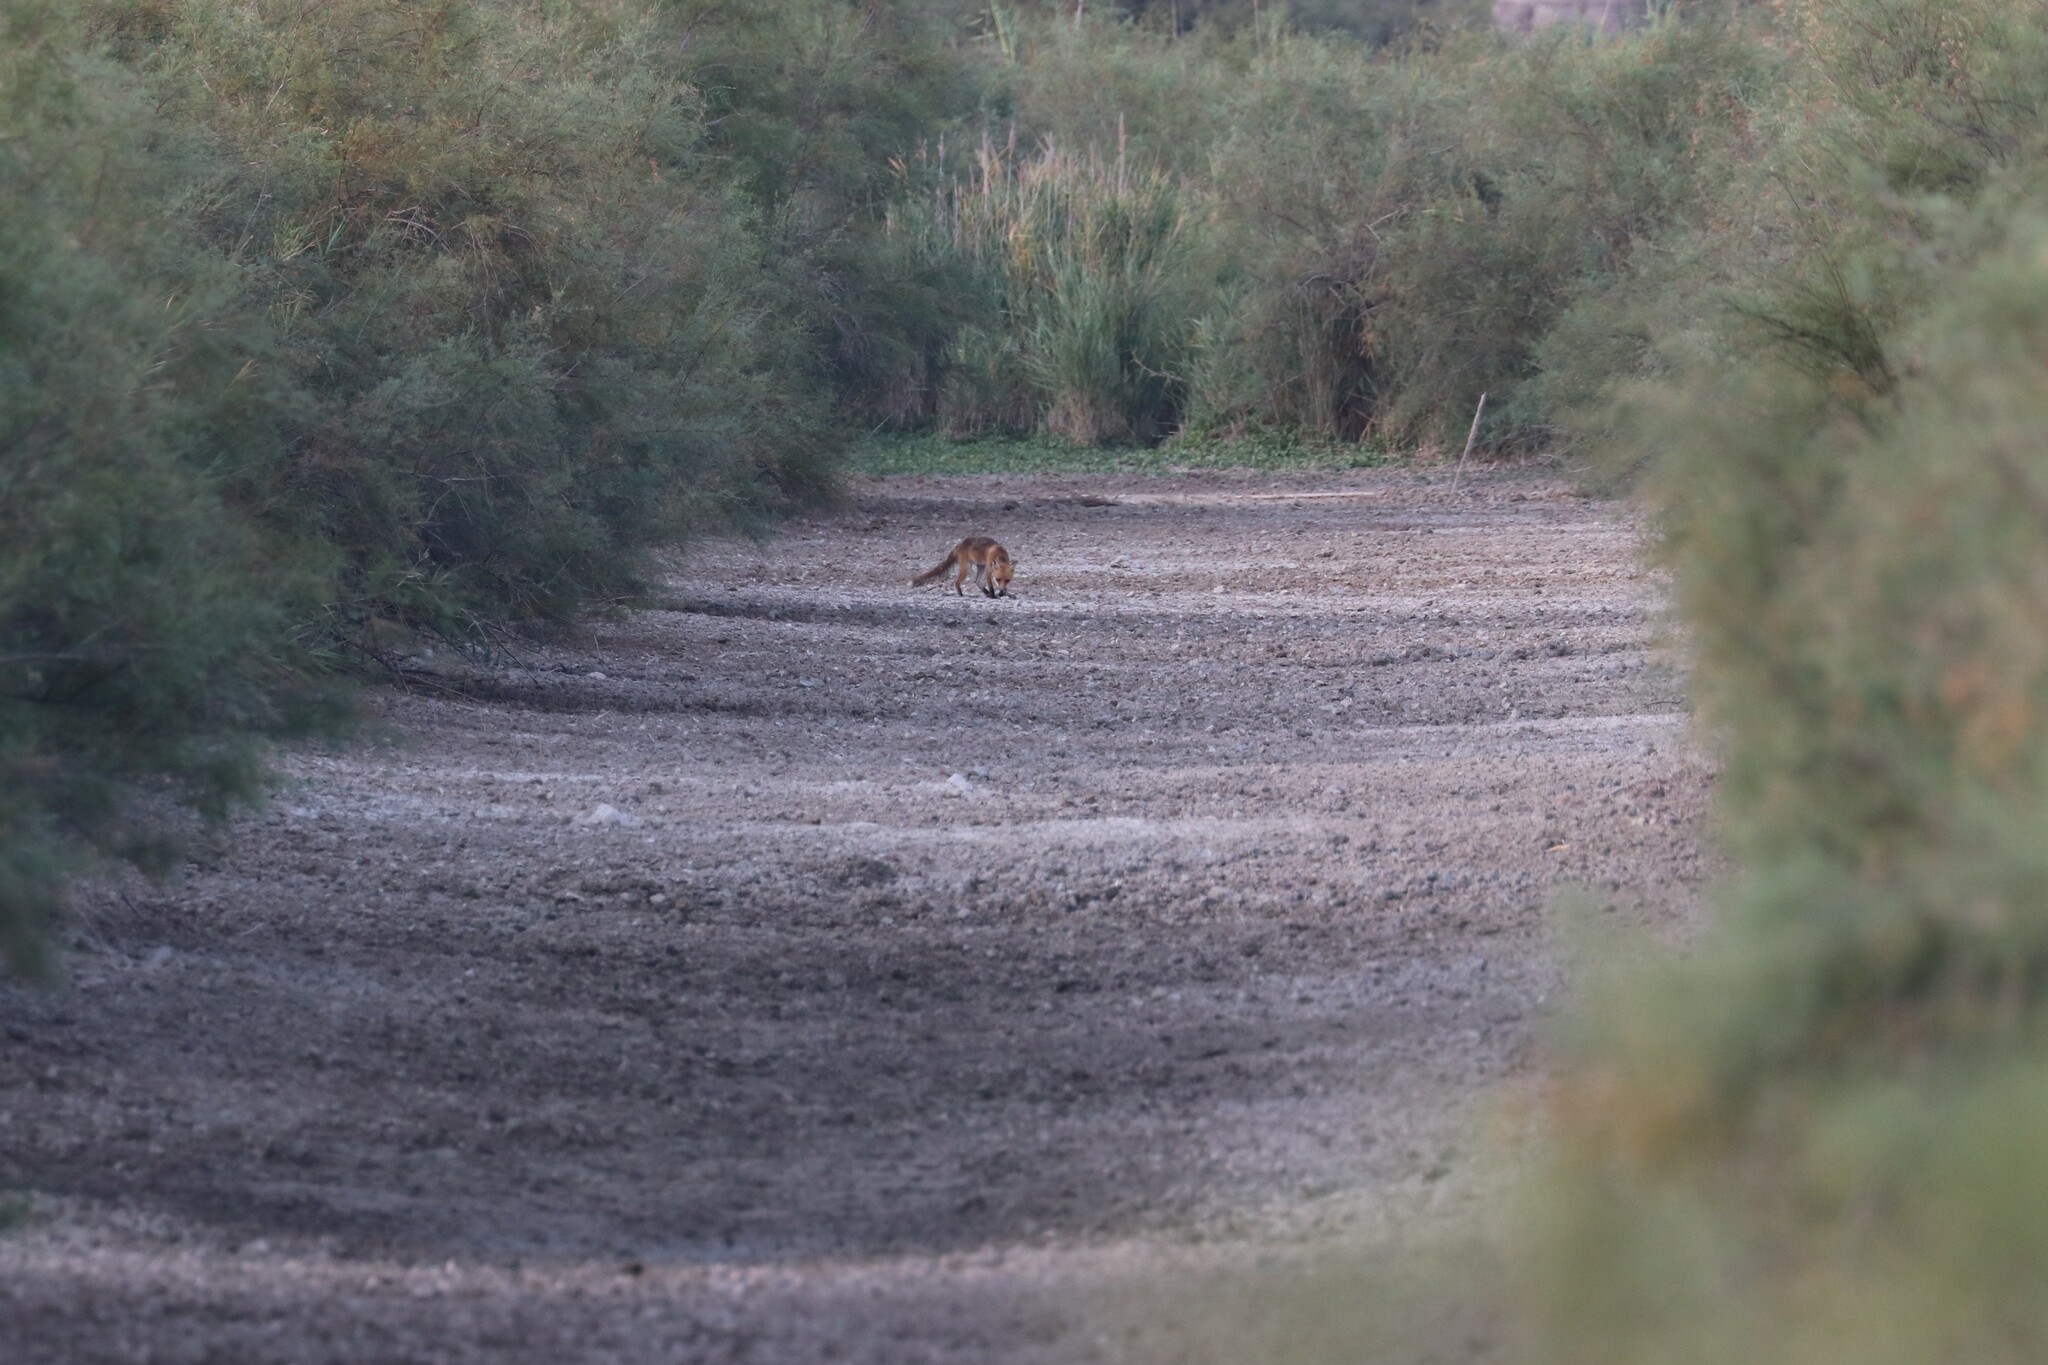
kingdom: Animalia
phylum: Chordata
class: Mammalia
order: Carnivora
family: Canidae
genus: Vulpes
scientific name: Vulpes vulpes
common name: Red fox
